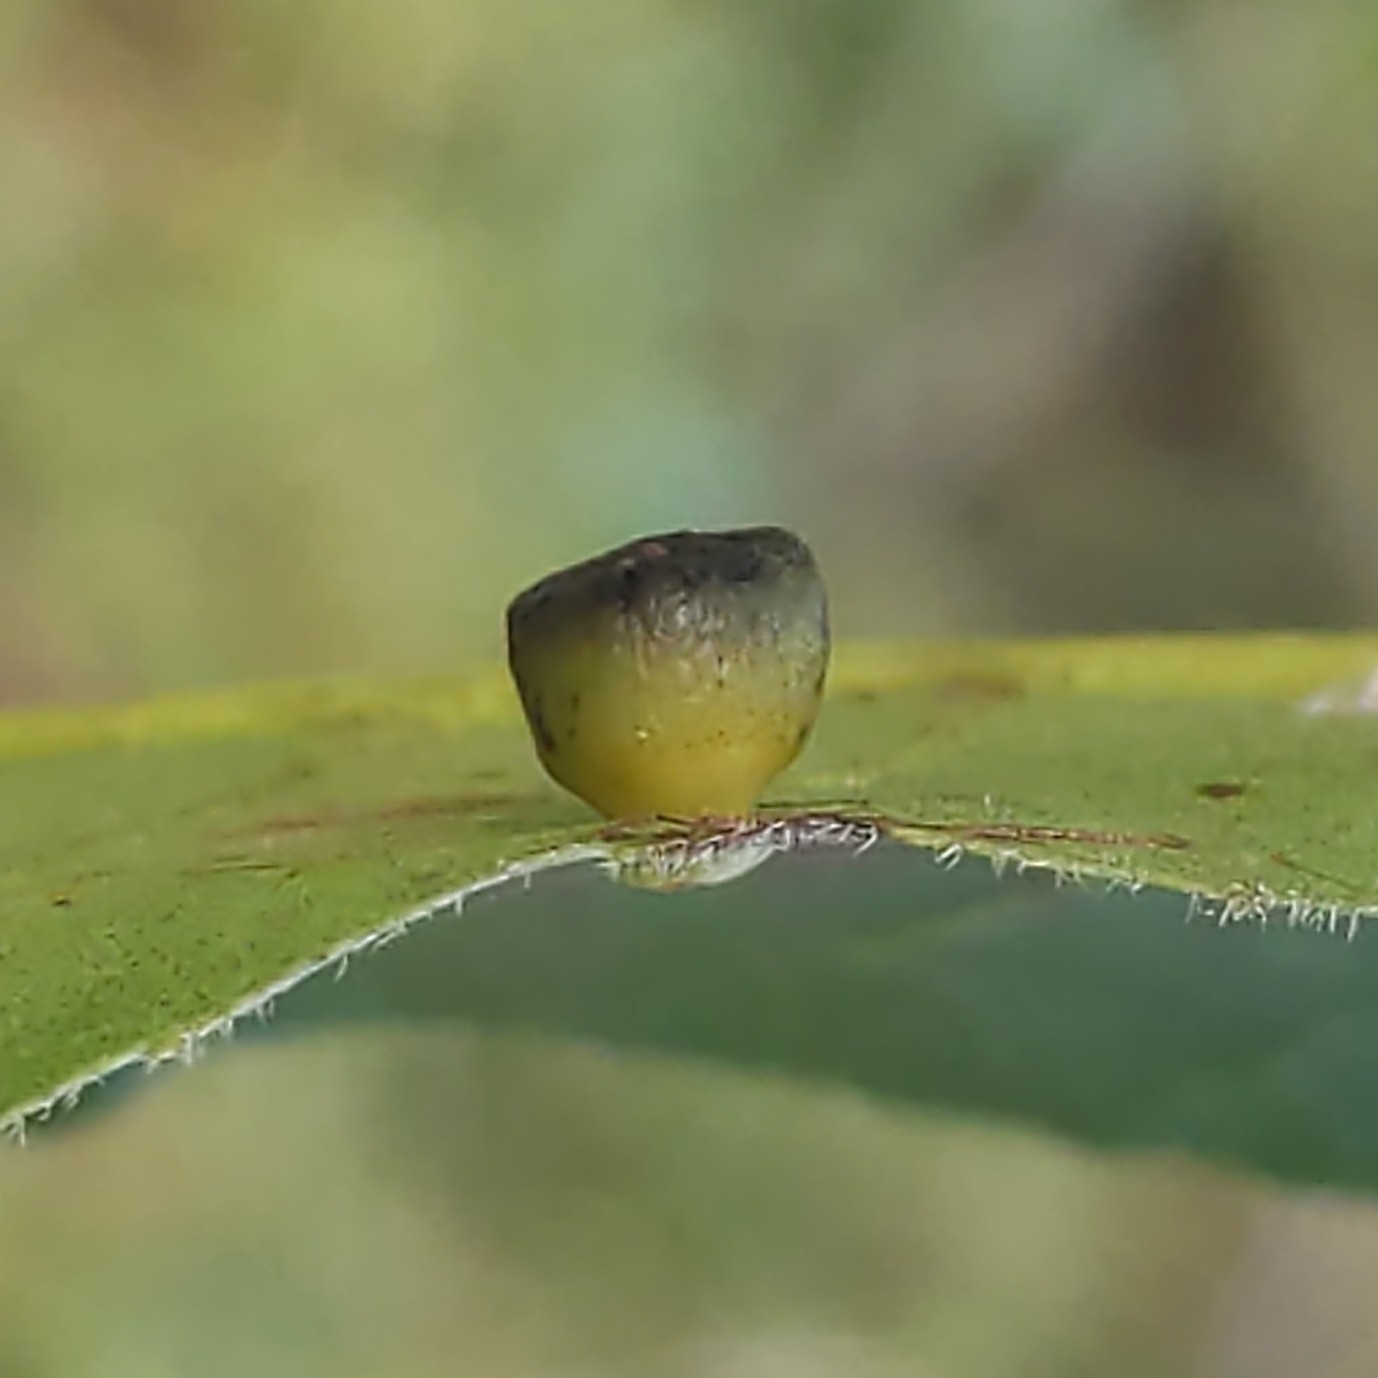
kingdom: Animalia
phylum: Arthropoda
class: Insecta
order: Diptera
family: Cecidomyiidae
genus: Caryomyia
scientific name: Caryomyia flaticrustum
